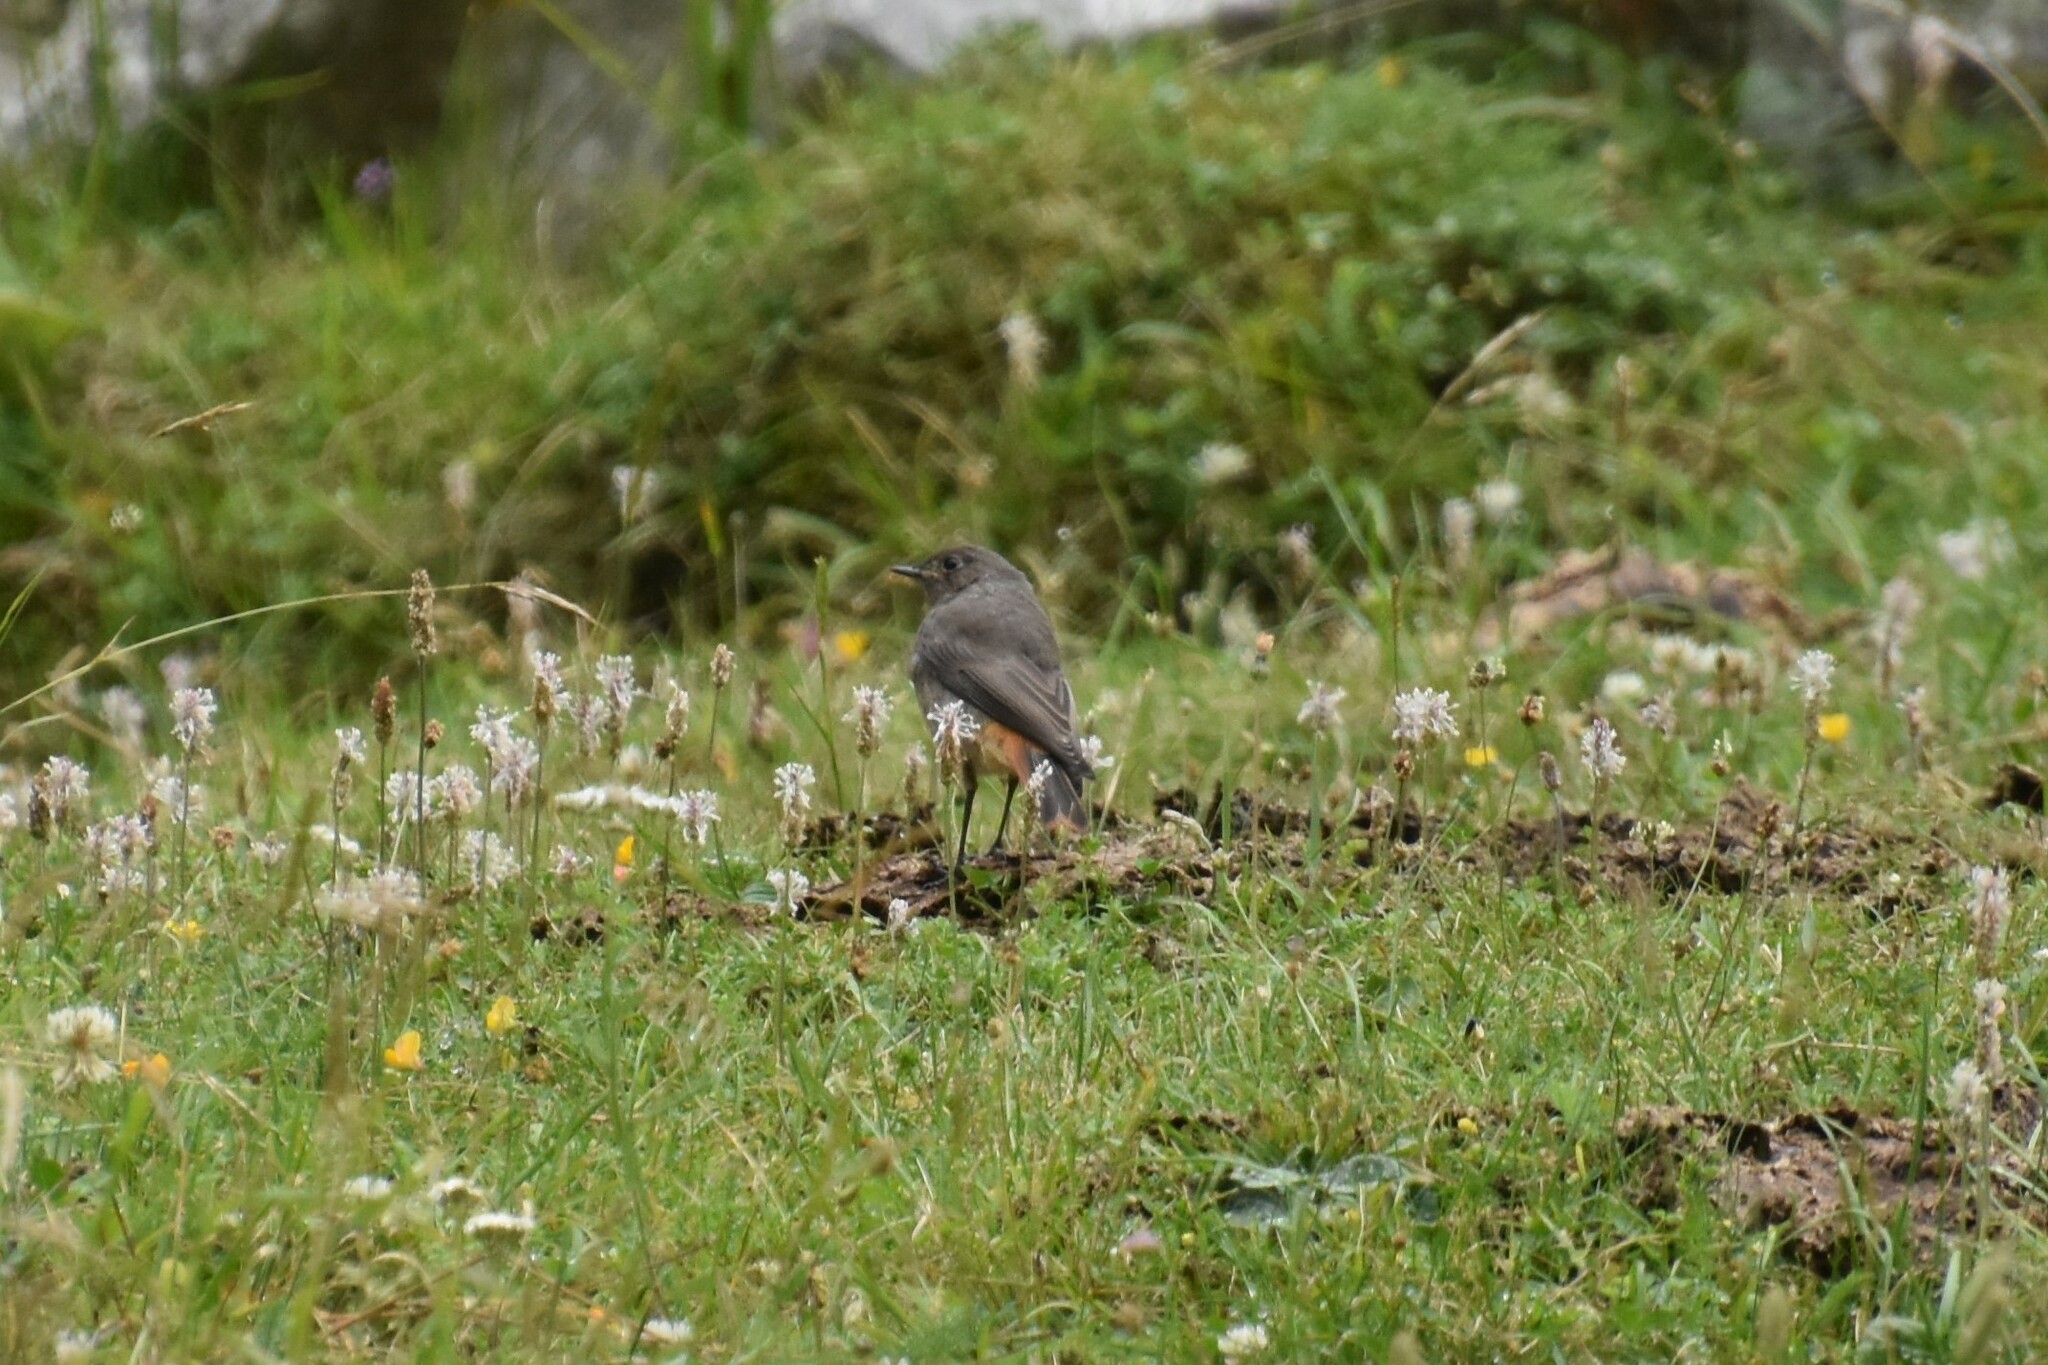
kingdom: Animalia
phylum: Chordata
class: Aves
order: Passeriformes
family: Muscicapidae
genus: Phoenicurus
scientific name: Phoenicurus ochruros
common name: Black redstart
